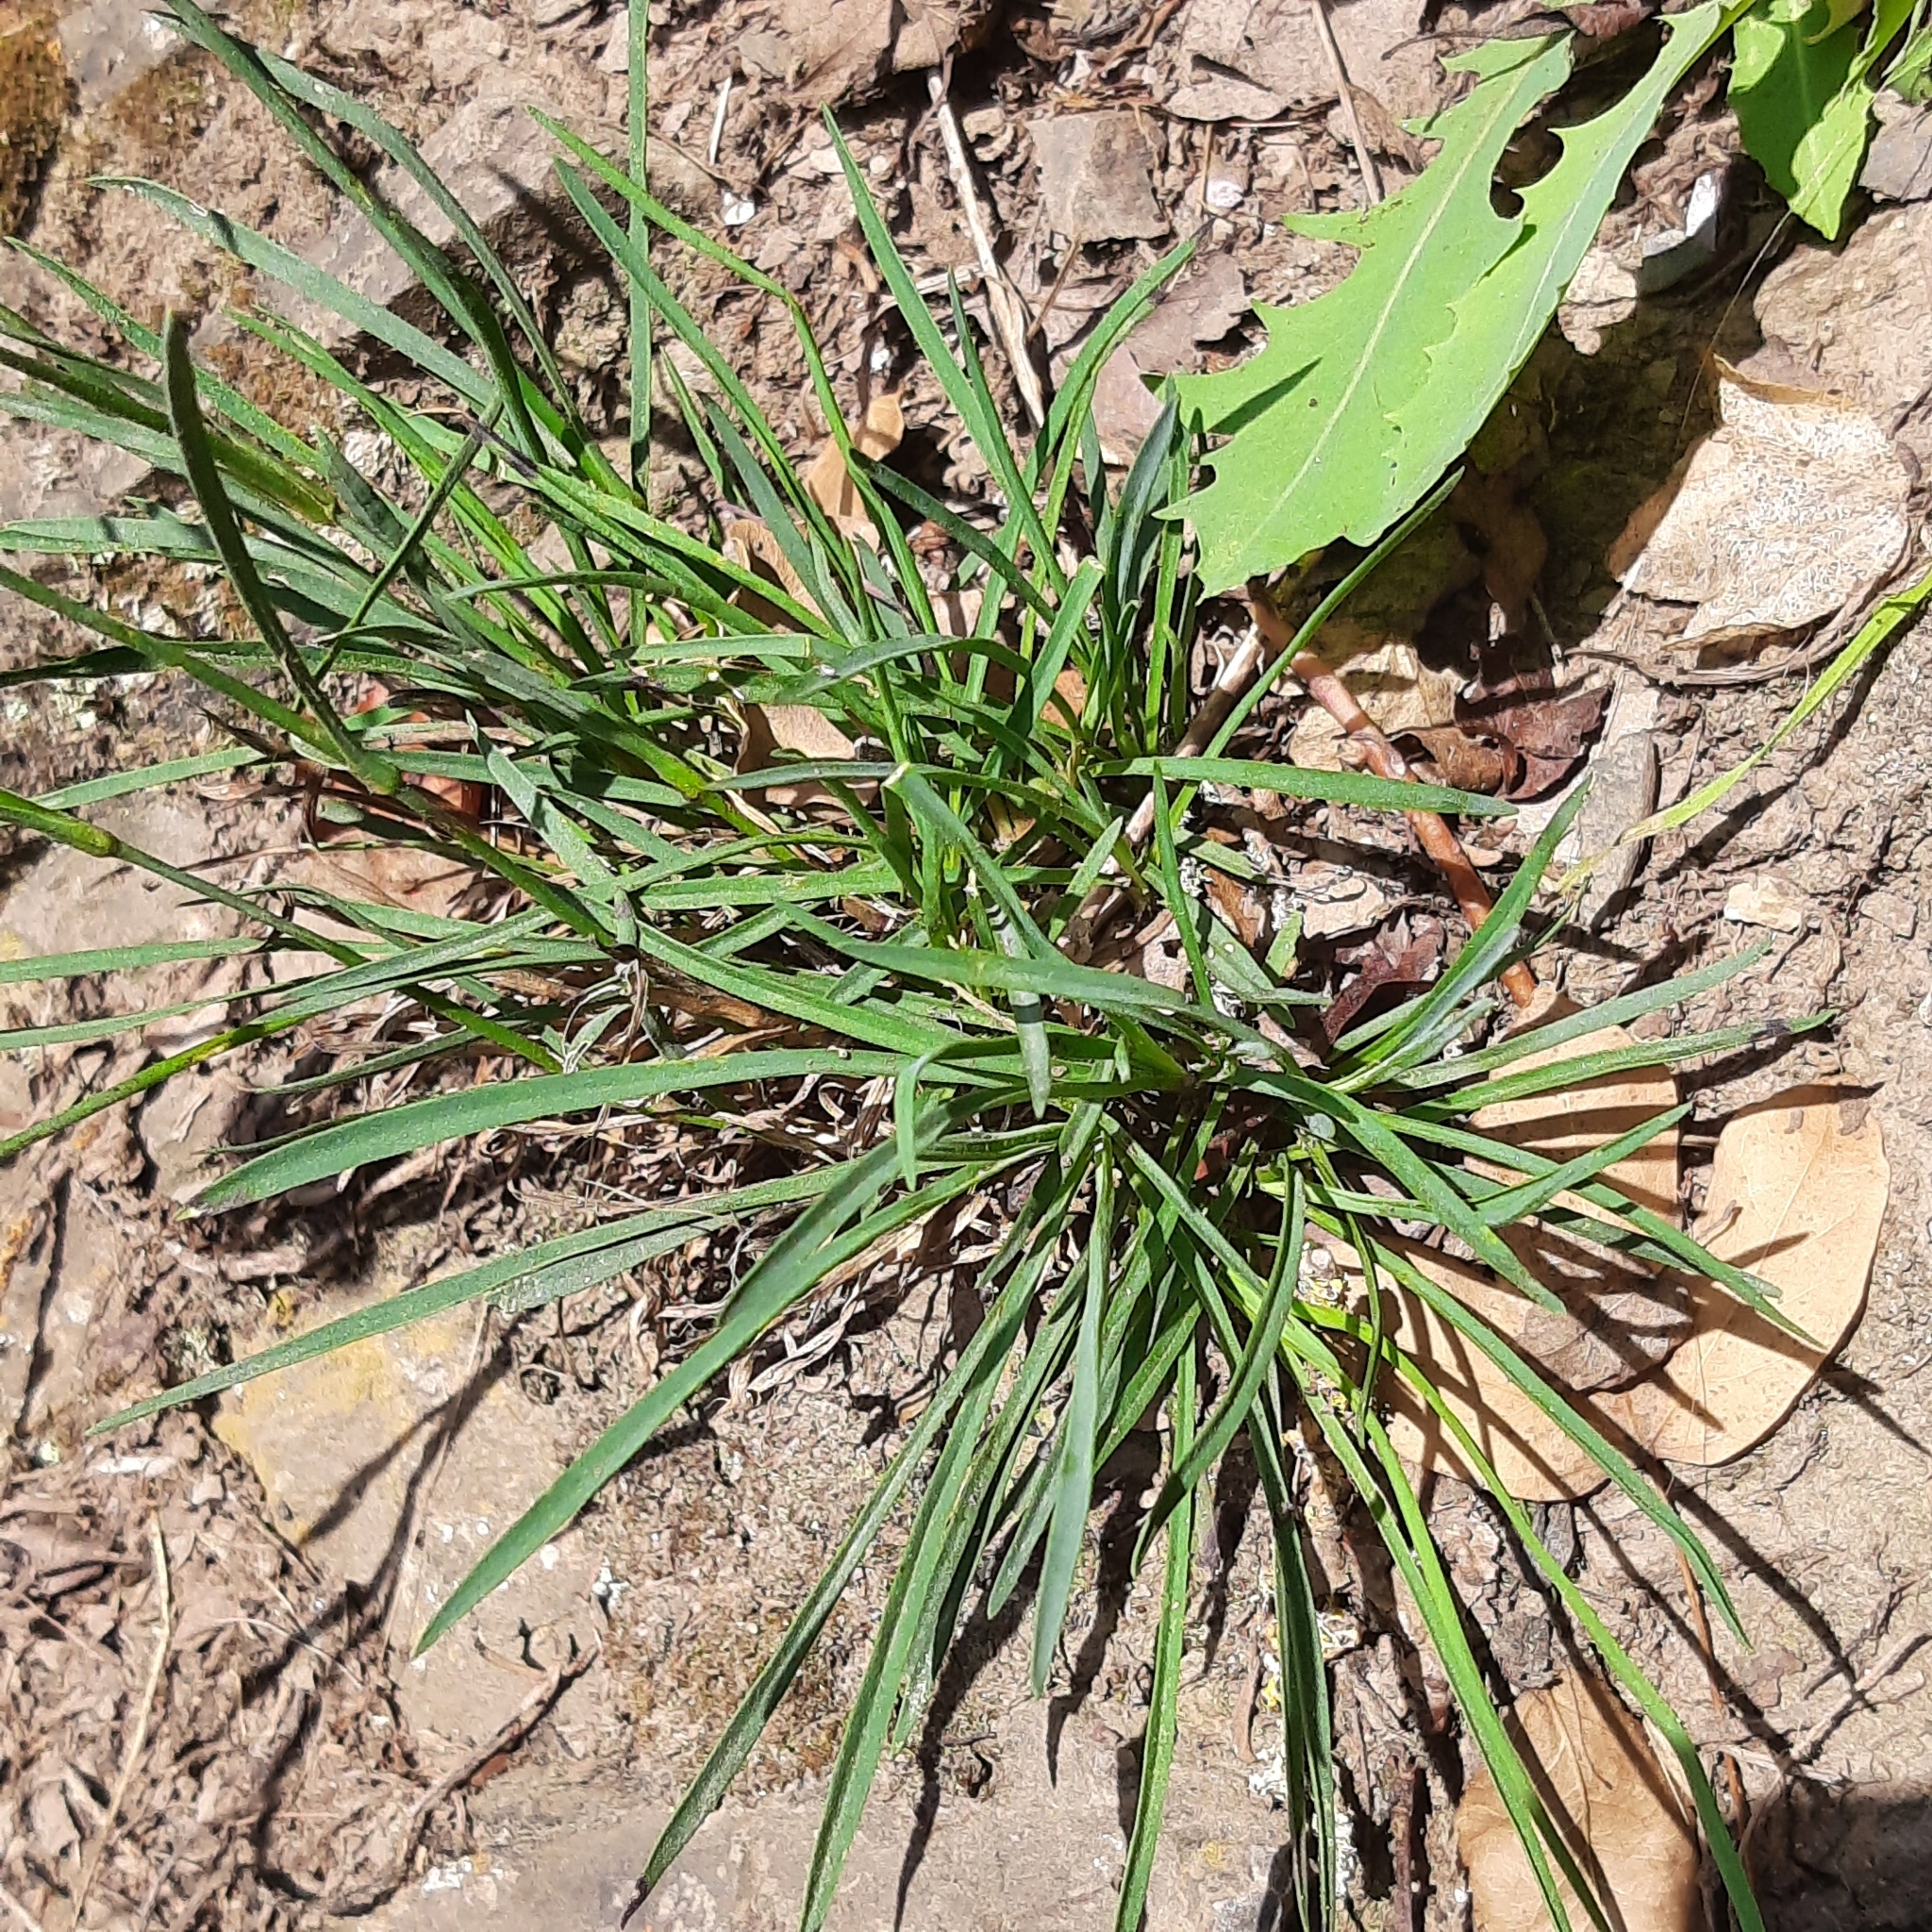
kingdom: Plantae
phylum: Tracheophyta
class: Magnoliopsida
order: Caryophyllales
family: Caryophyllaceae
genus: Dianthus
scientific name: Dianthus carthusianorum
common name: Carthusian pink
